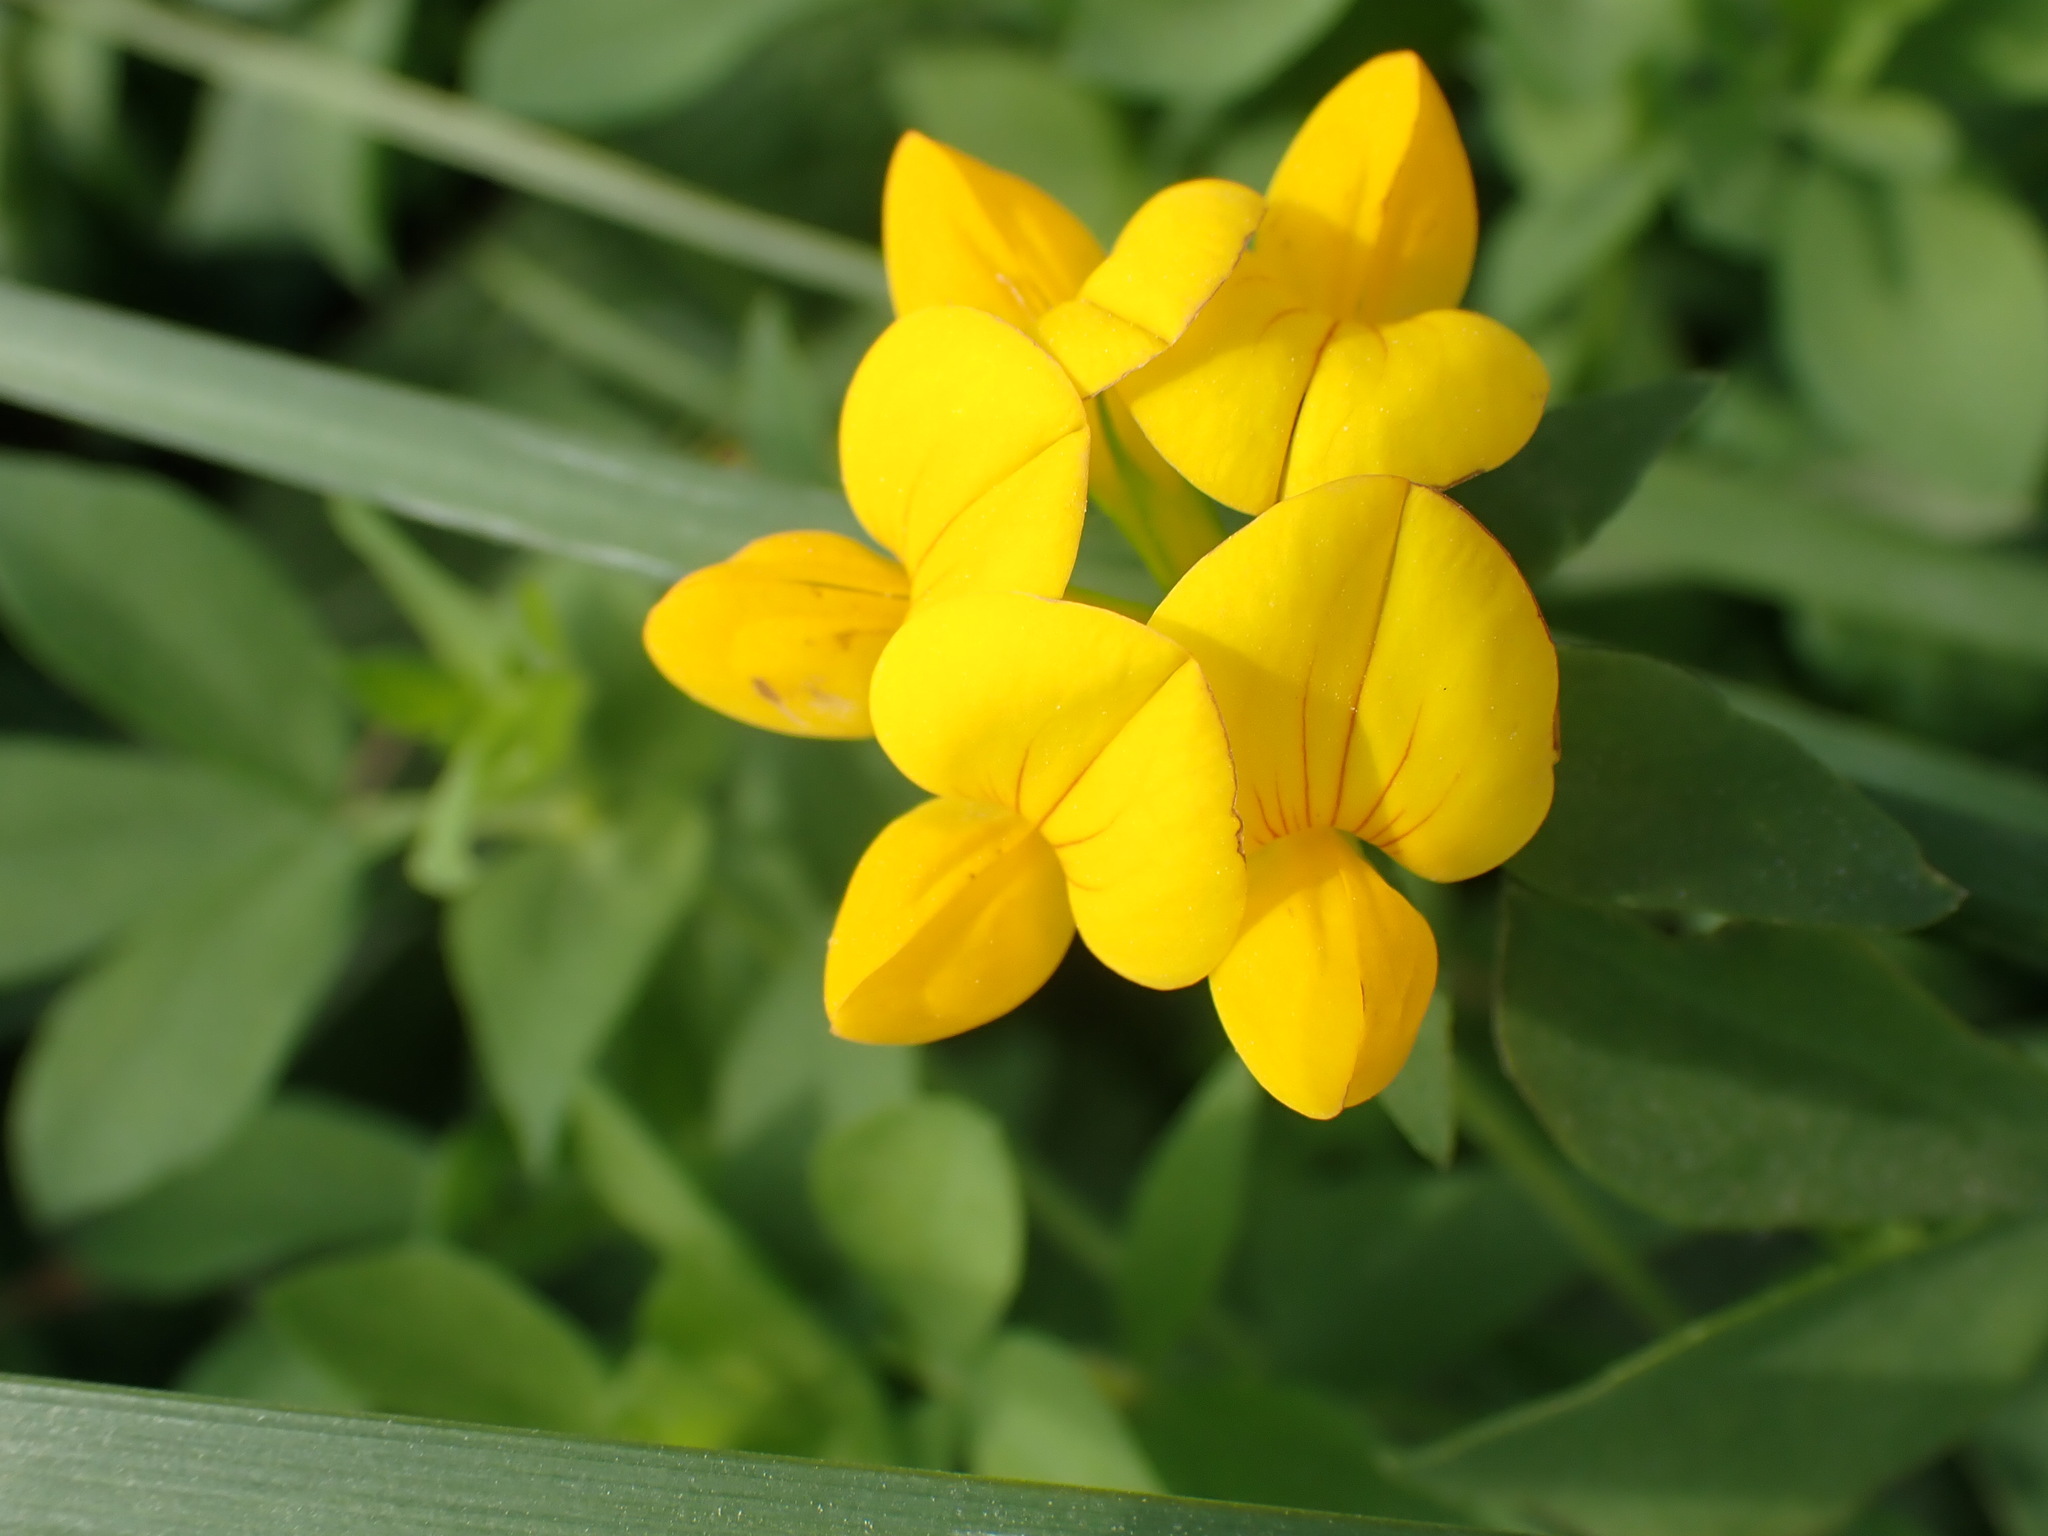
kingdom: Plantae
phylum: Tracheophyta
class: Magnoliopsida
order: Fabales
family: Fabaceae
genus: Lotus
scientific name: Lotus corniculatus
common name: Common bird's-foot-trefoil
